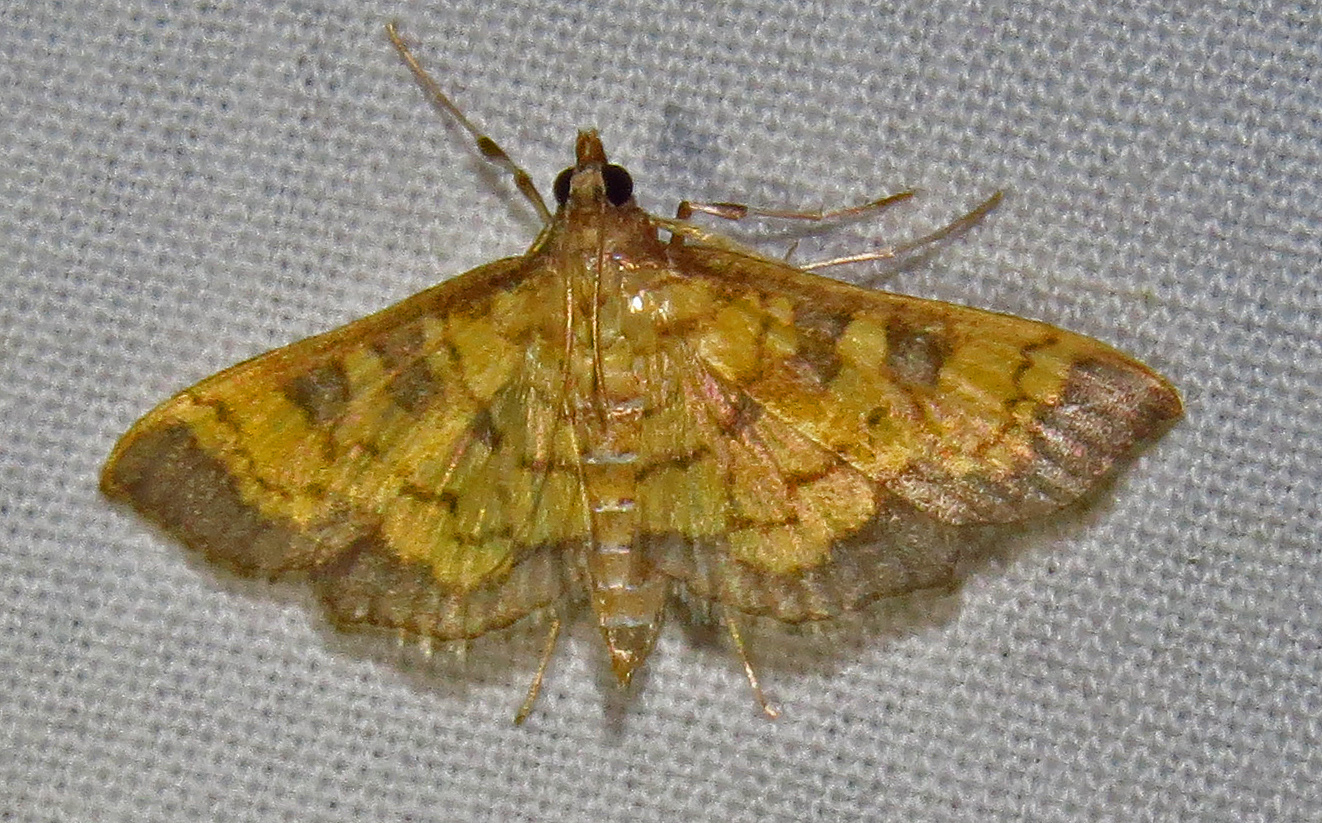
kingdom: Animalia
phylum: Arthropoda
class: Insecta
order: Lepidoptera
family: Crambidae
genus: Epipagis
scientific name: Epipagis adipaloides
